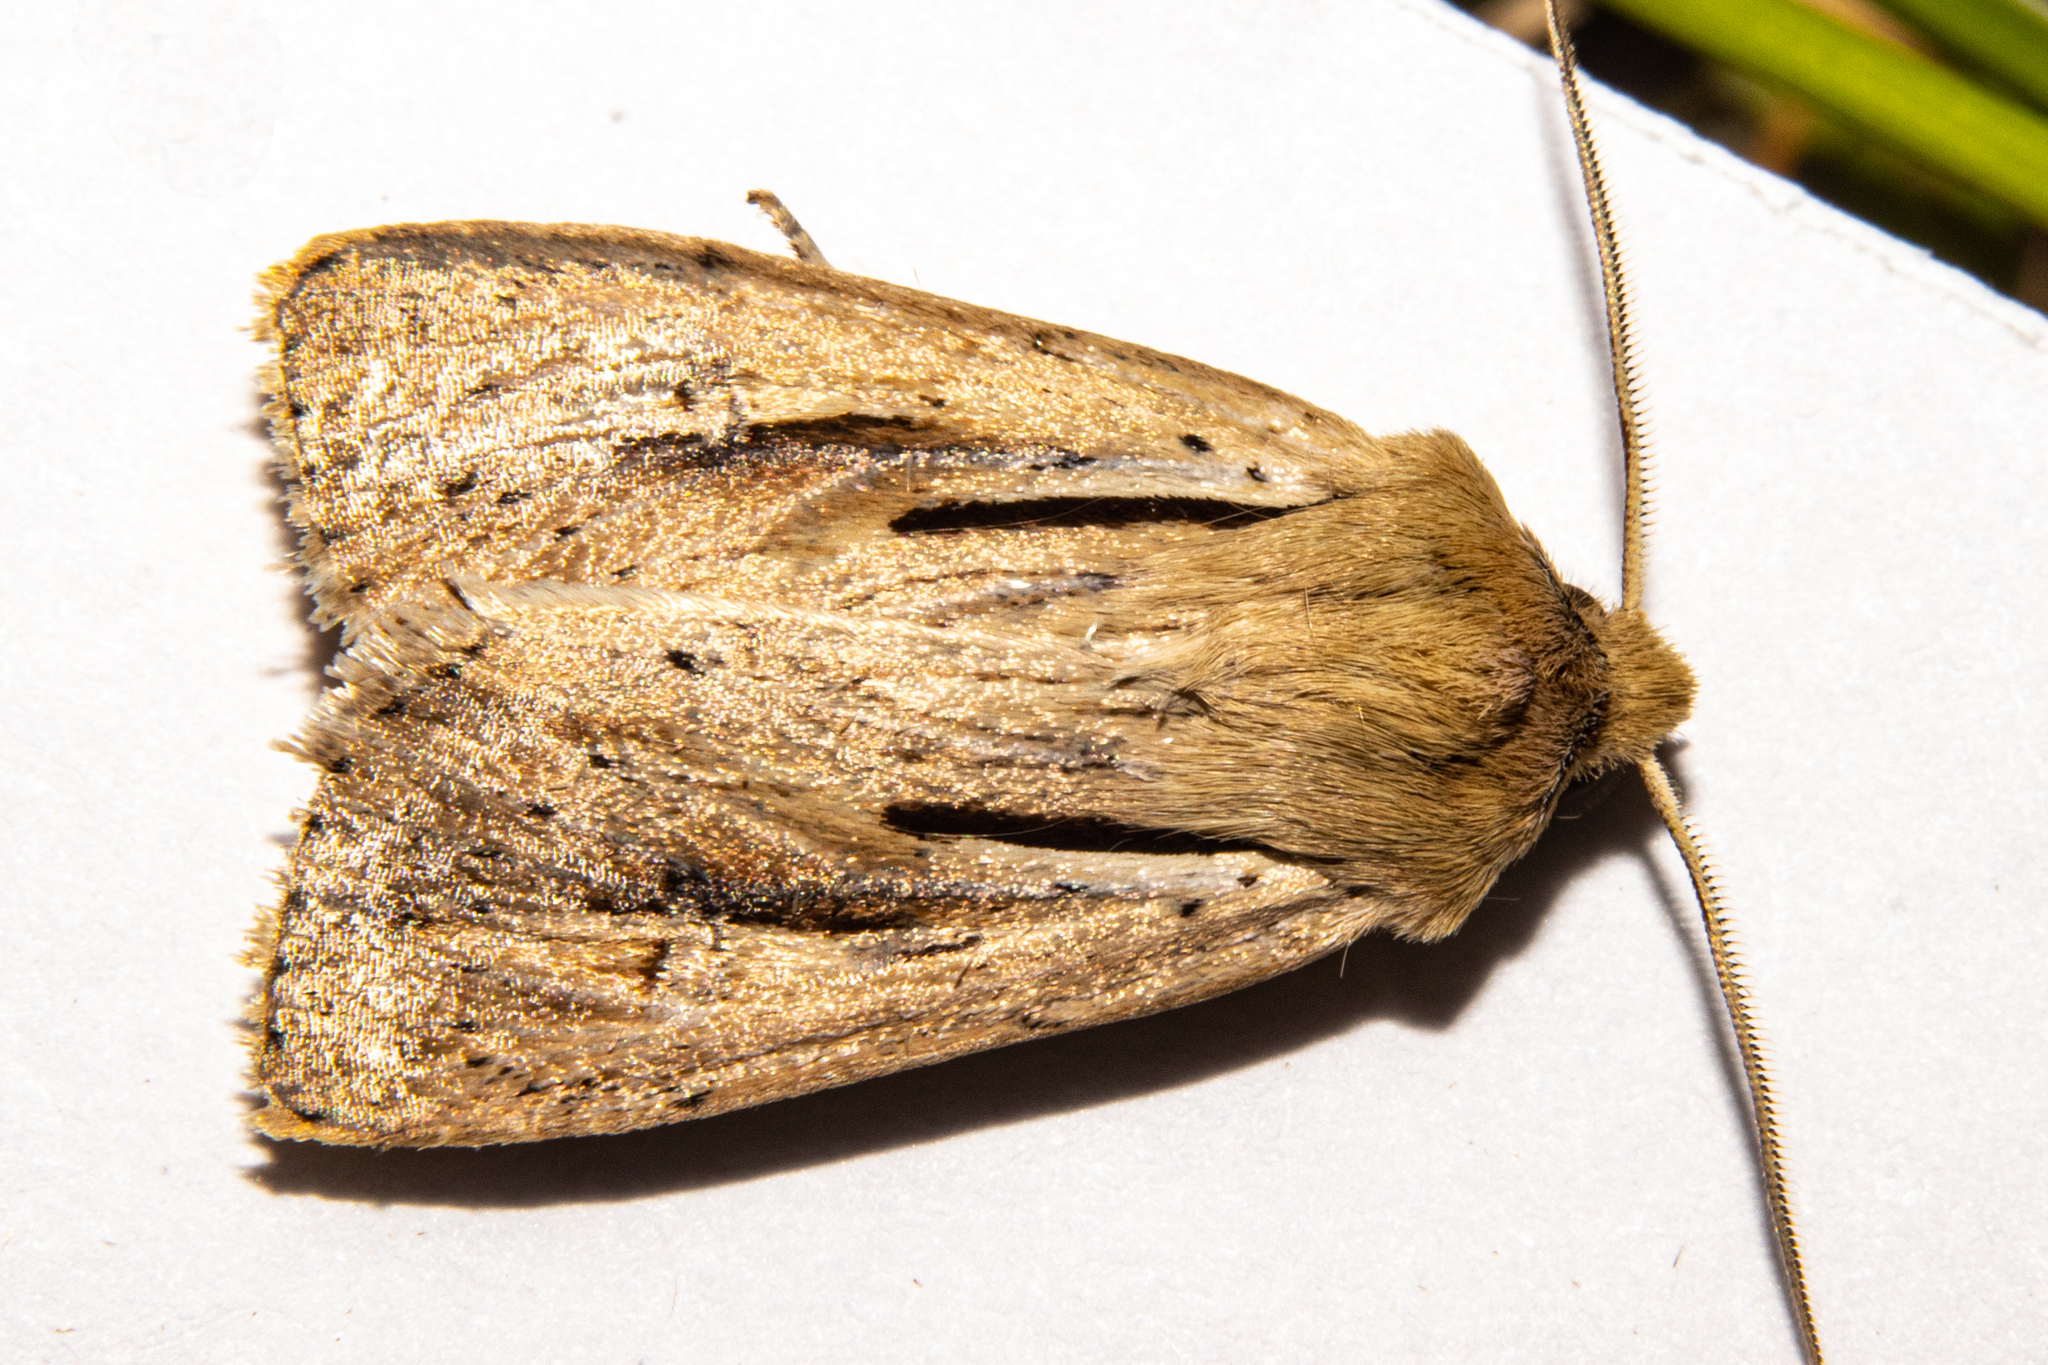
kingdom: Animalia
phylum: Arthropoda
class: Insecta
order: Lepidoptera
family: Noctuidae
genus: Ichneutica
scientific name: Ichneutica propria
